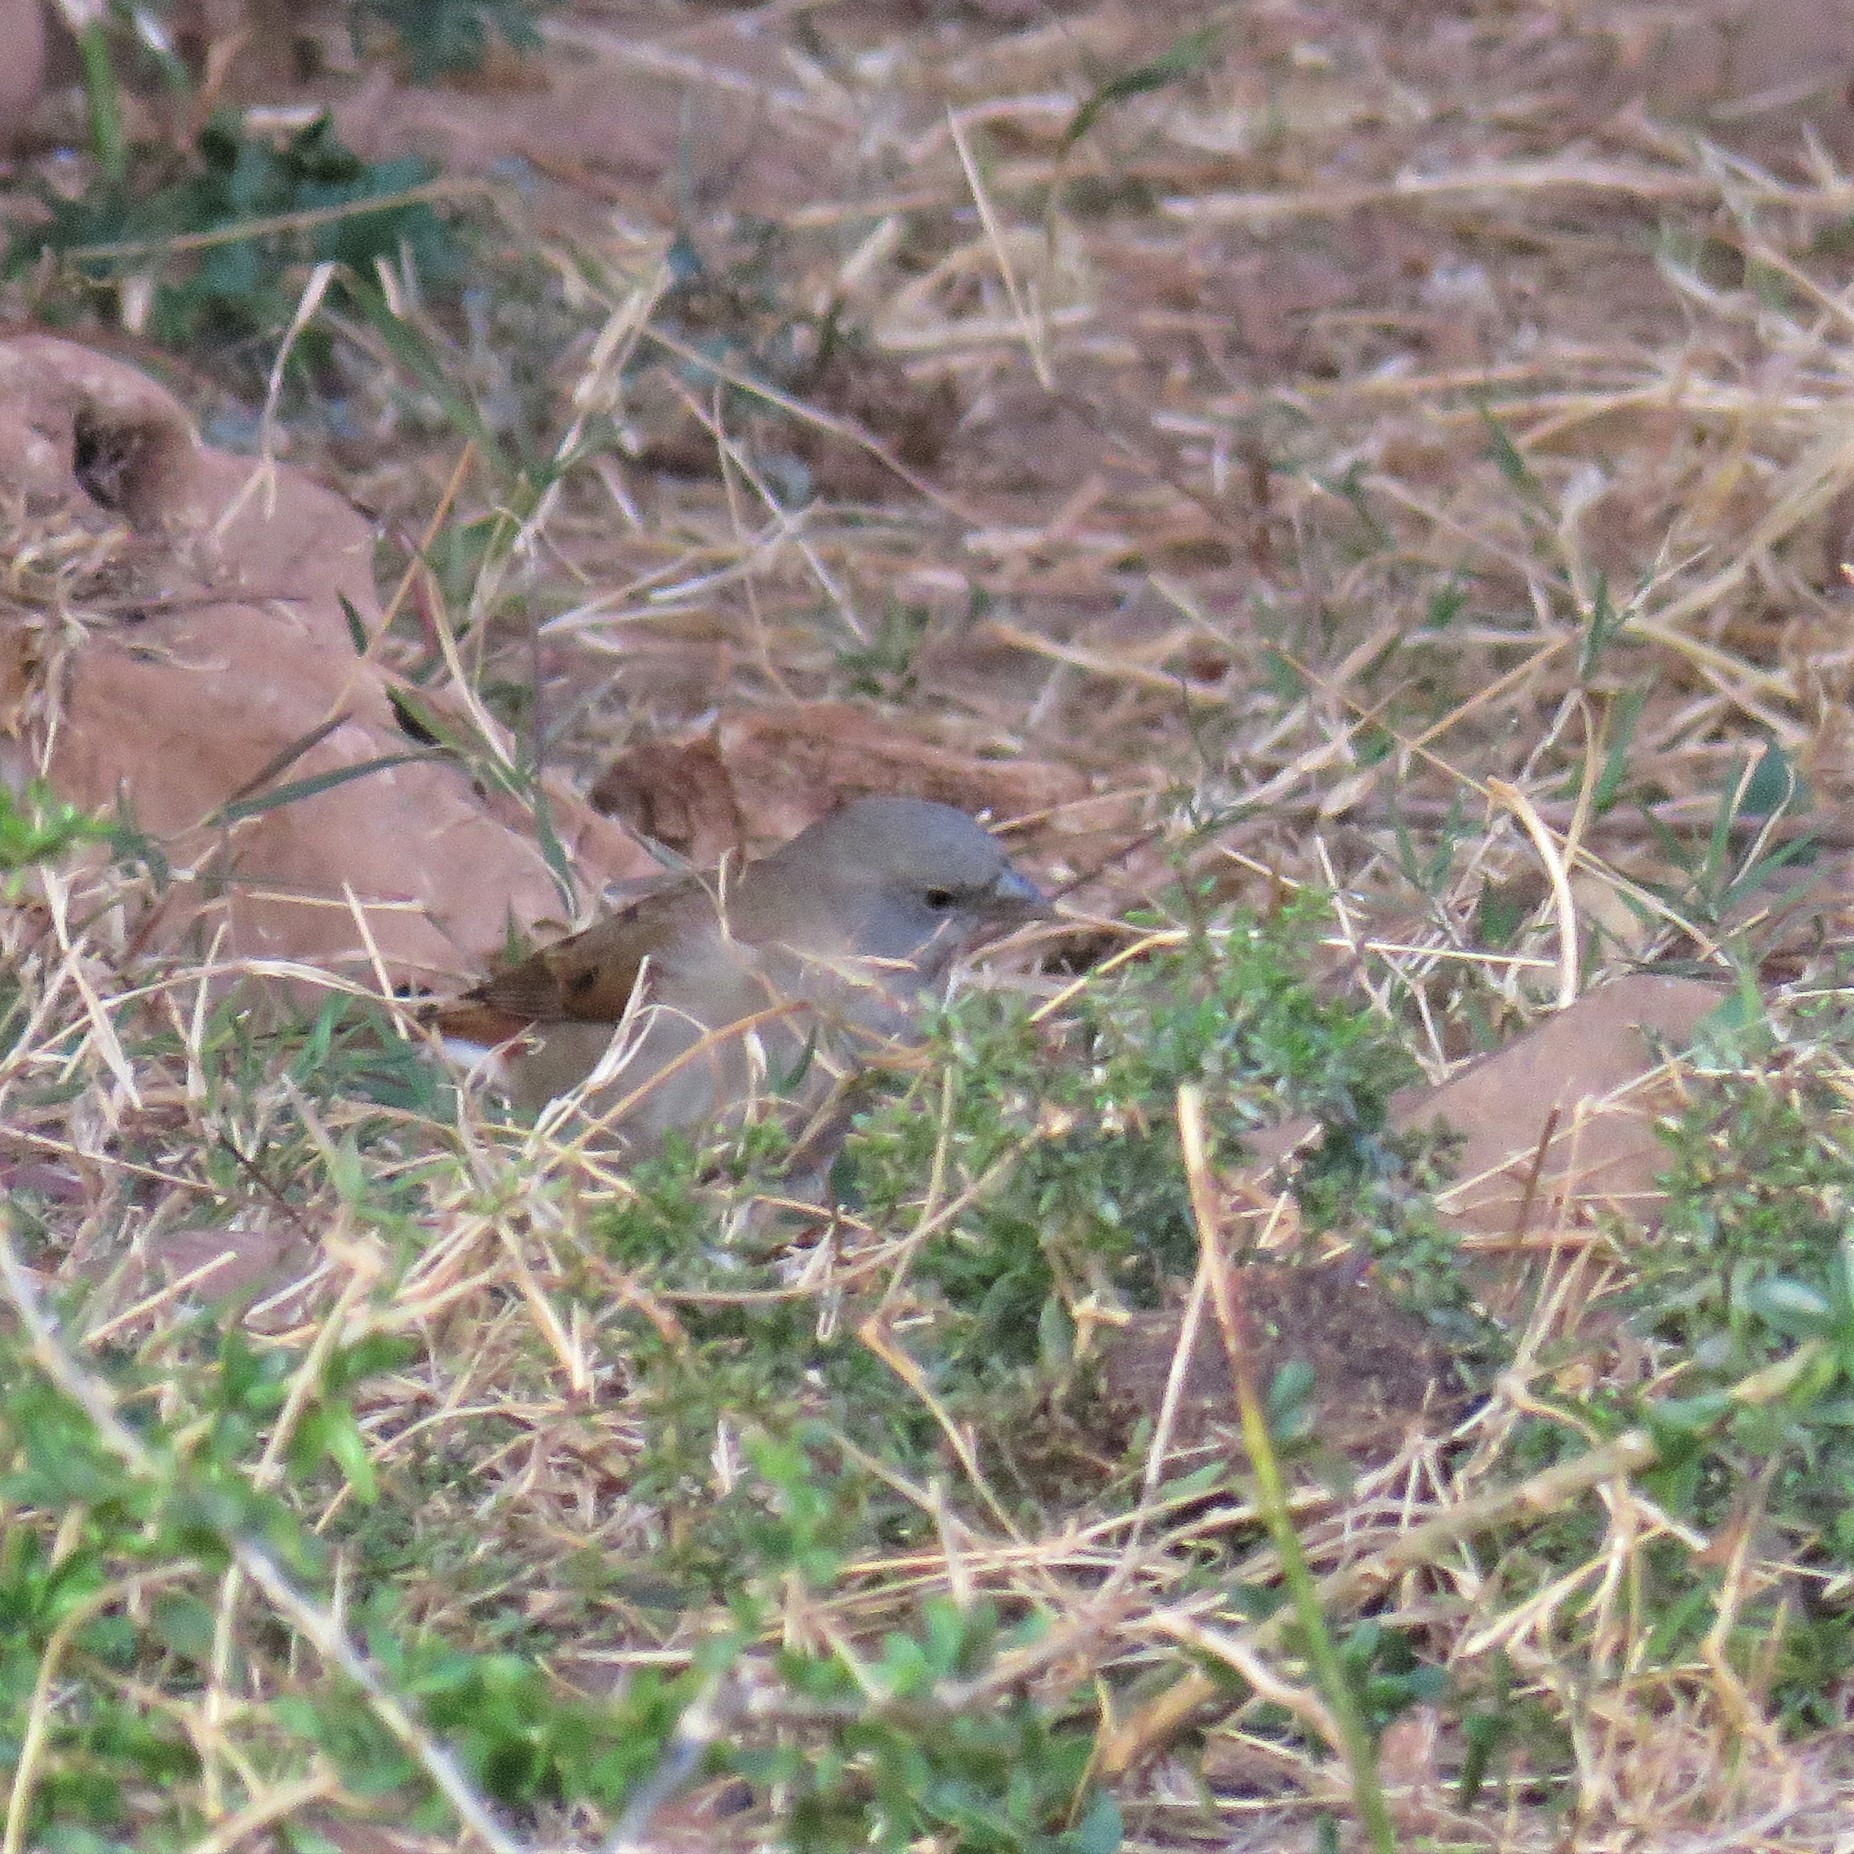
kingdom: Animalia
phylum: Chordata
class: Aves
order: Passeriformes
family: Passeridae
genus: Passer
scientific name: Passer diffusus
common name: Southern grey-headed sparrow
